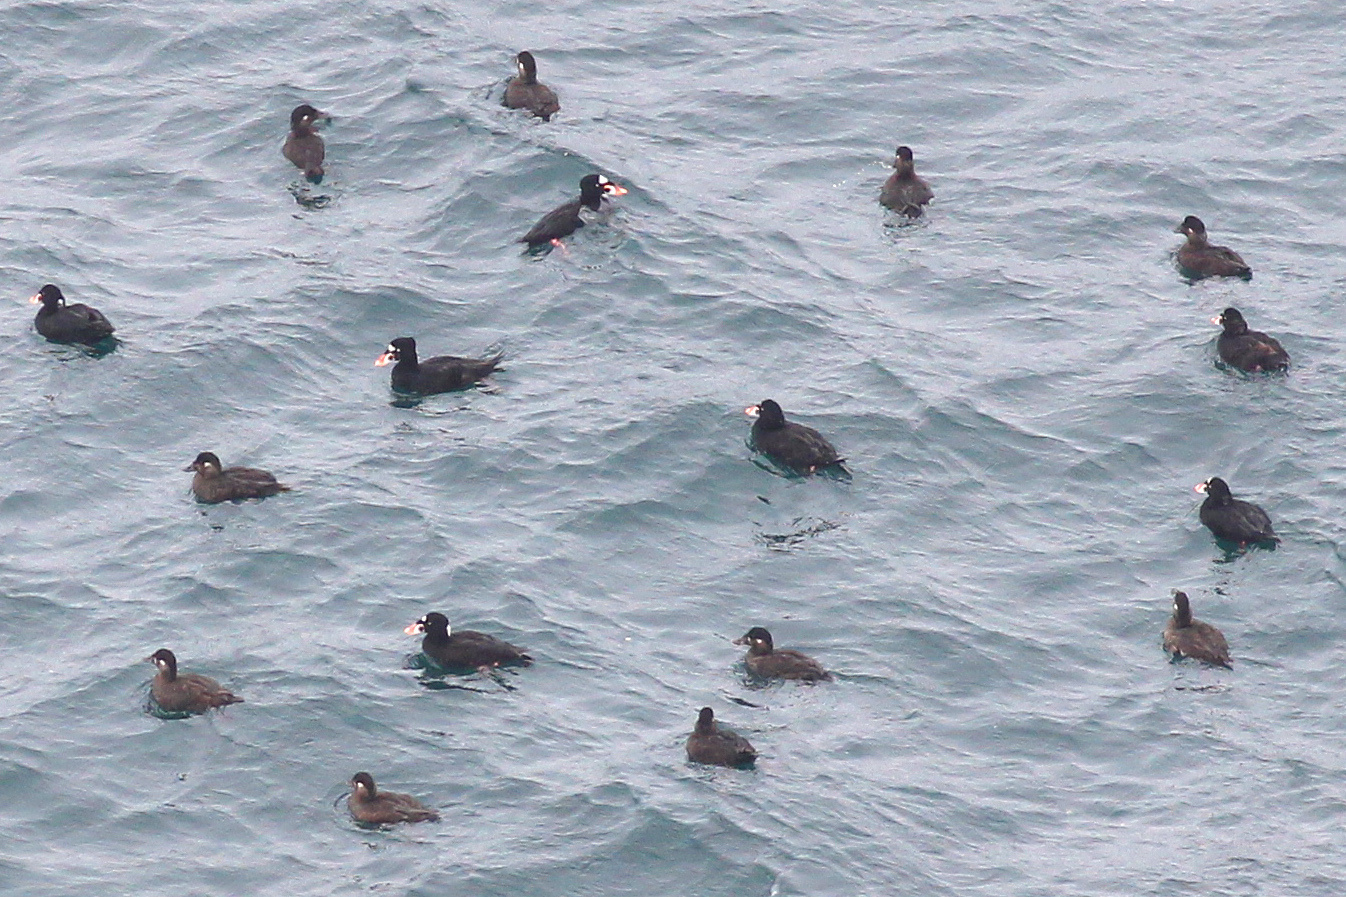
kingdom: Animalia
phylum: Chordata
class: Aves
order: Anseriformes
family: Anatidae
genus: Melanitta
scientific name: Melanitta perspicillata
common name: Surf scoter
